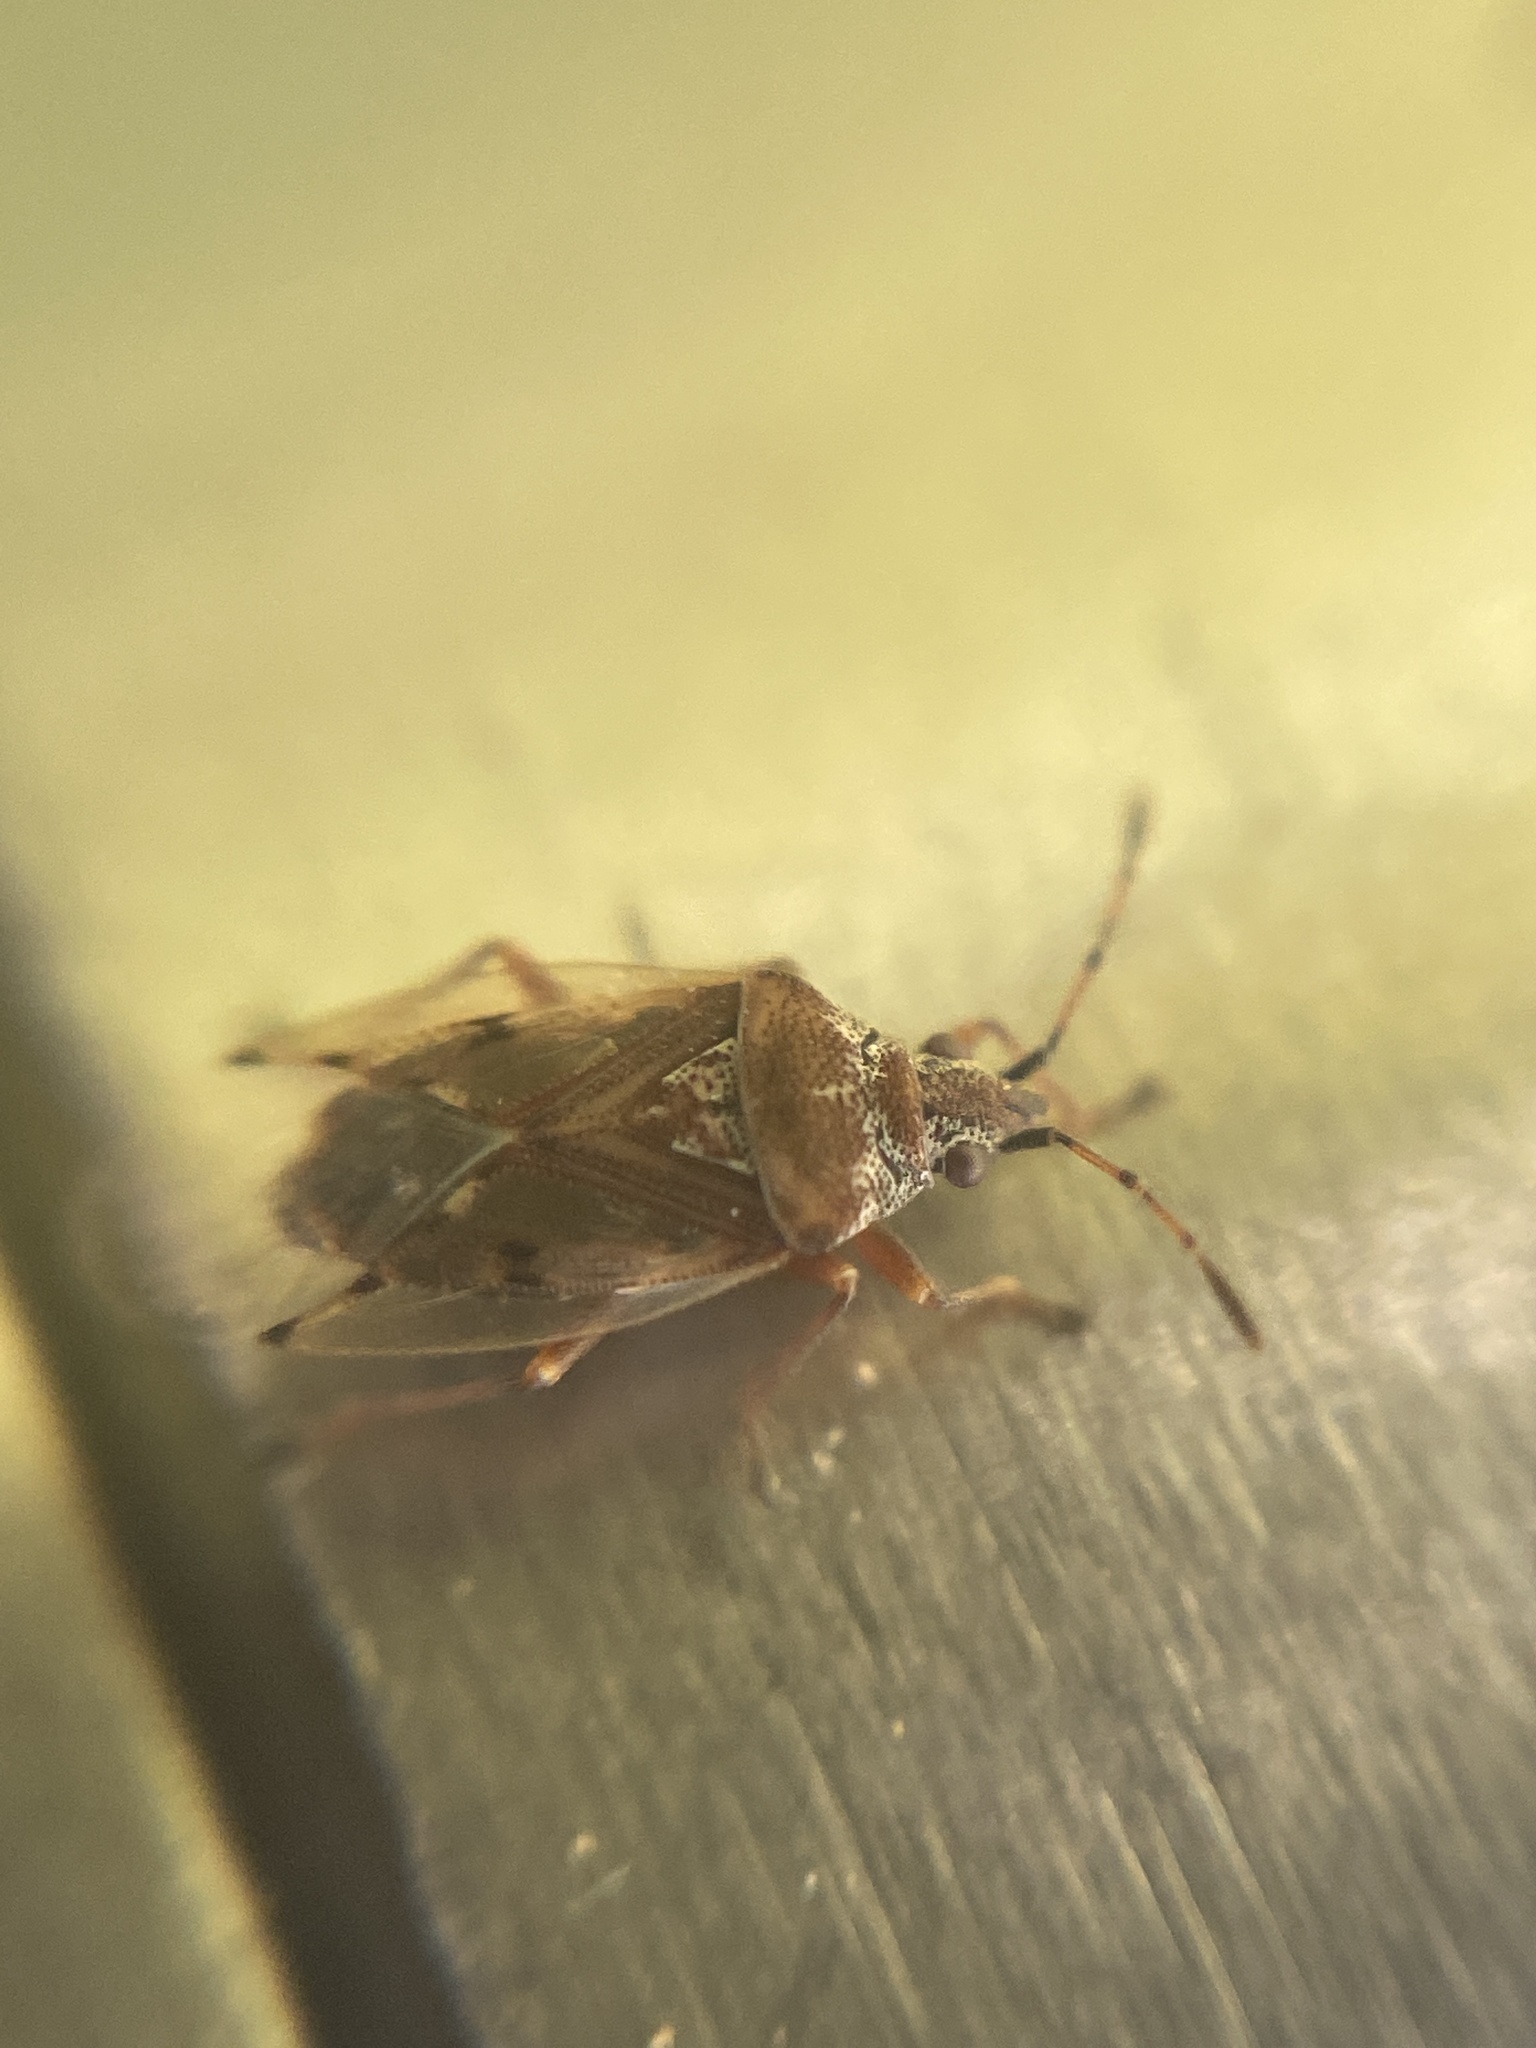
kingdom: Animalia
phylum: Arthropoda
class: Insecta
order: Hemiptera
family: Lygaeidae
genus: Kleidocerys
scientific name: Kleidocerys resedae
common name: Birch catkin bug
